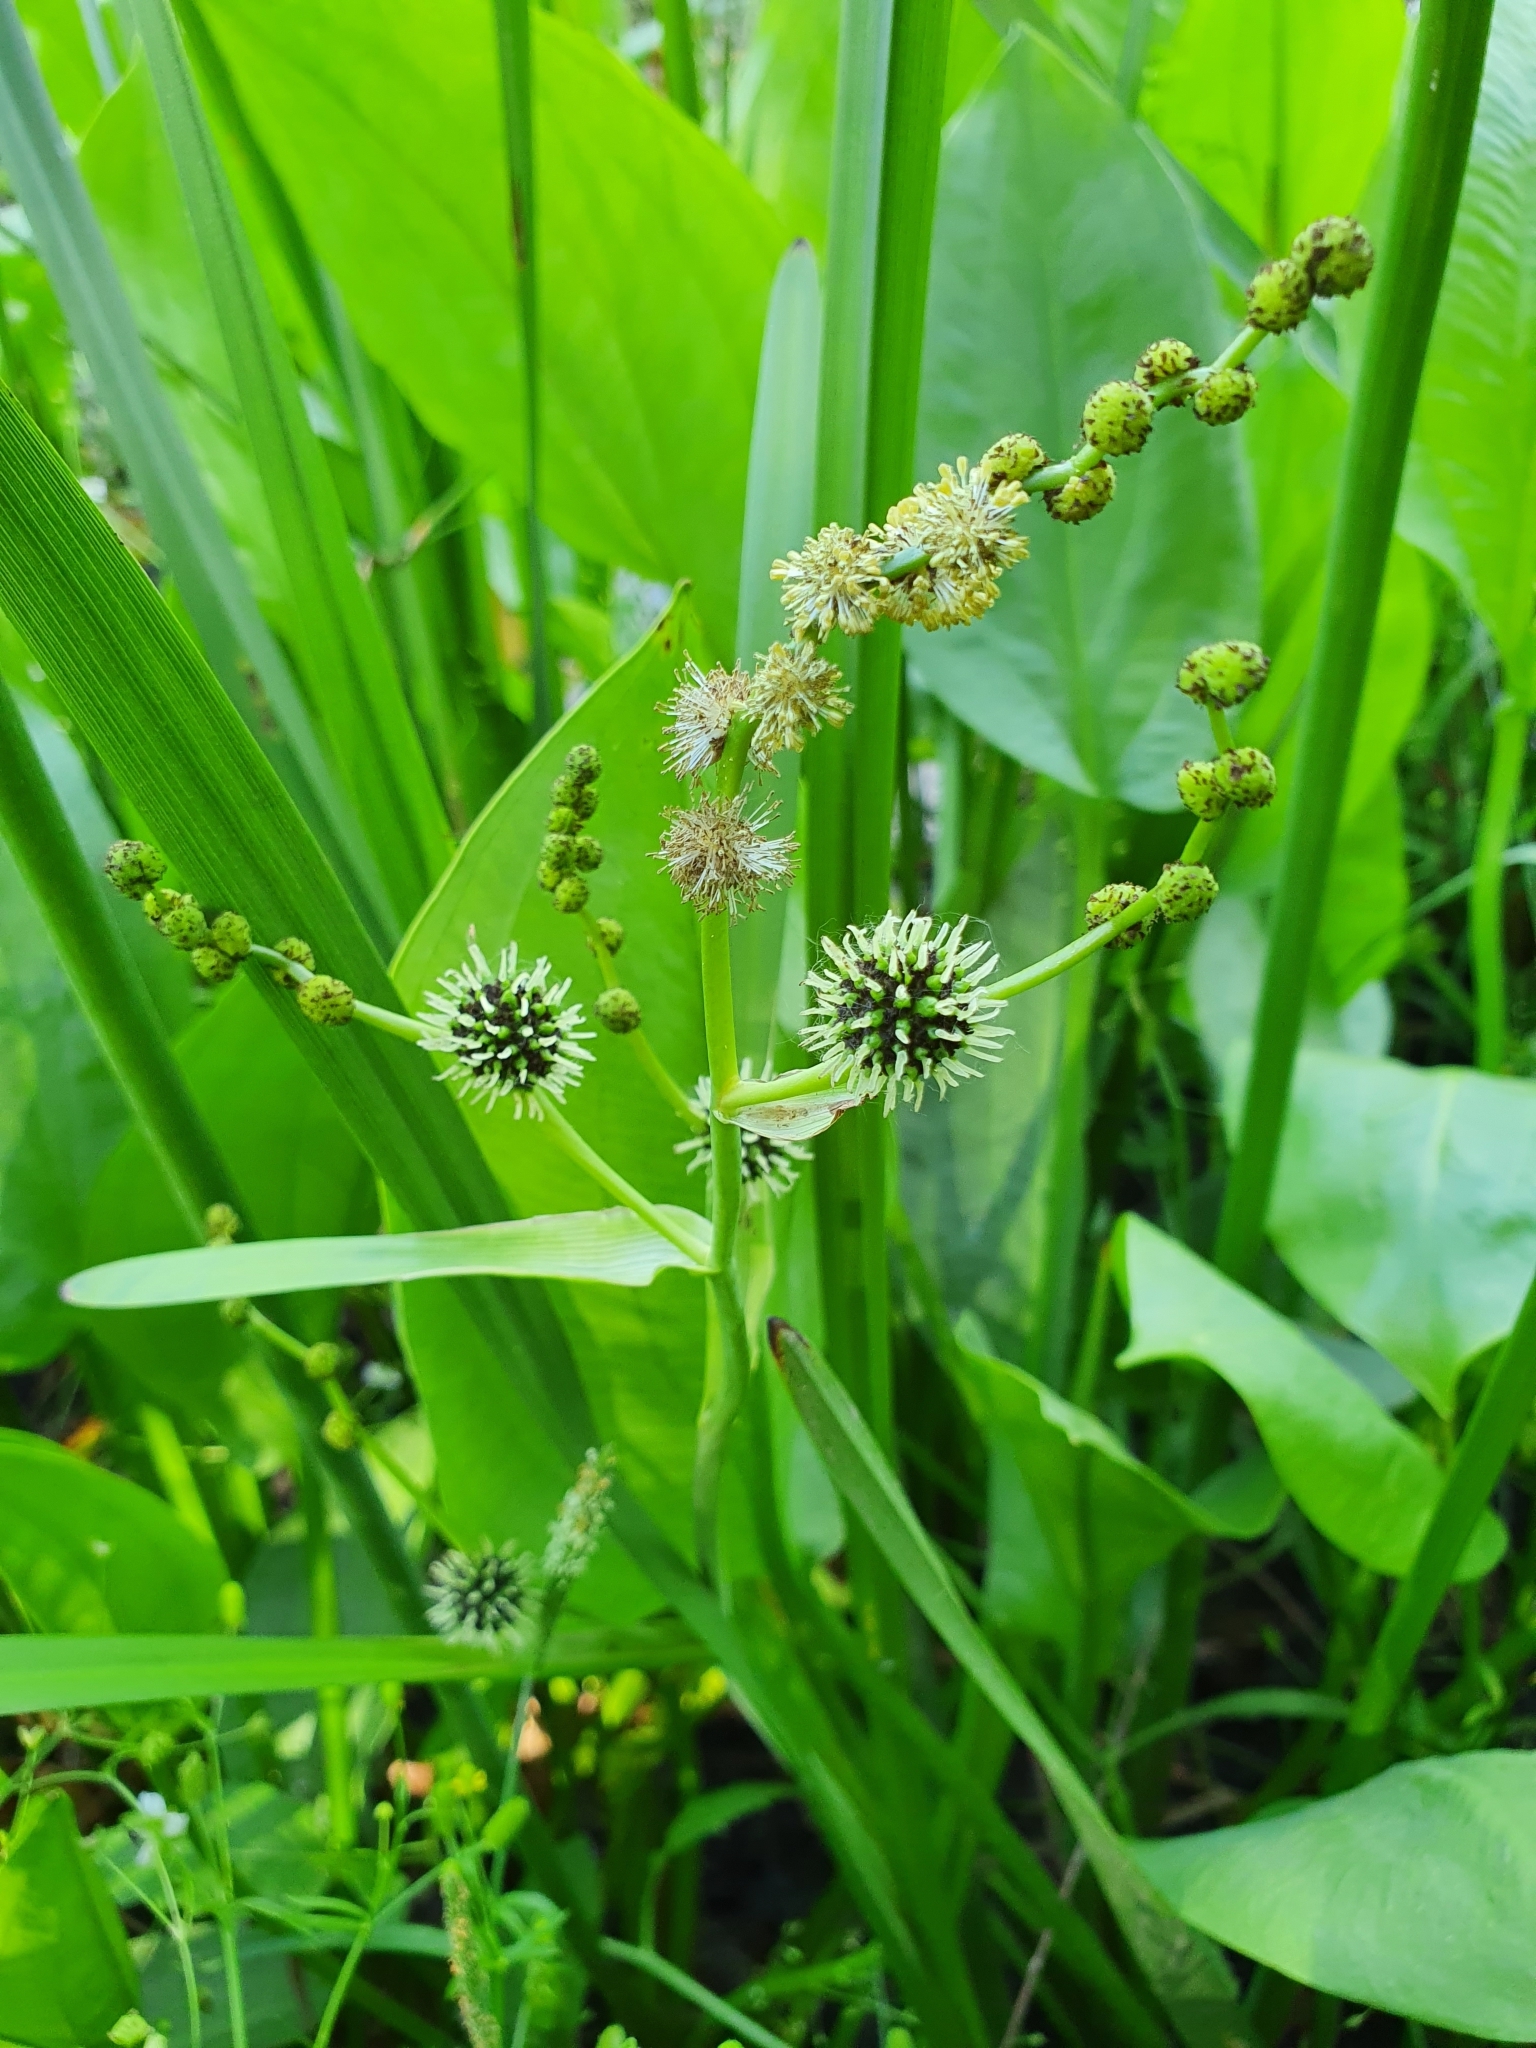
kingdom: Plantae
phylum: Tracheophyta
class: Liliopsida
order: Poales
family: Typhaceae
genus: Sparganium
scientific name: Sparganium erectum
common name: Branched bur-reed
